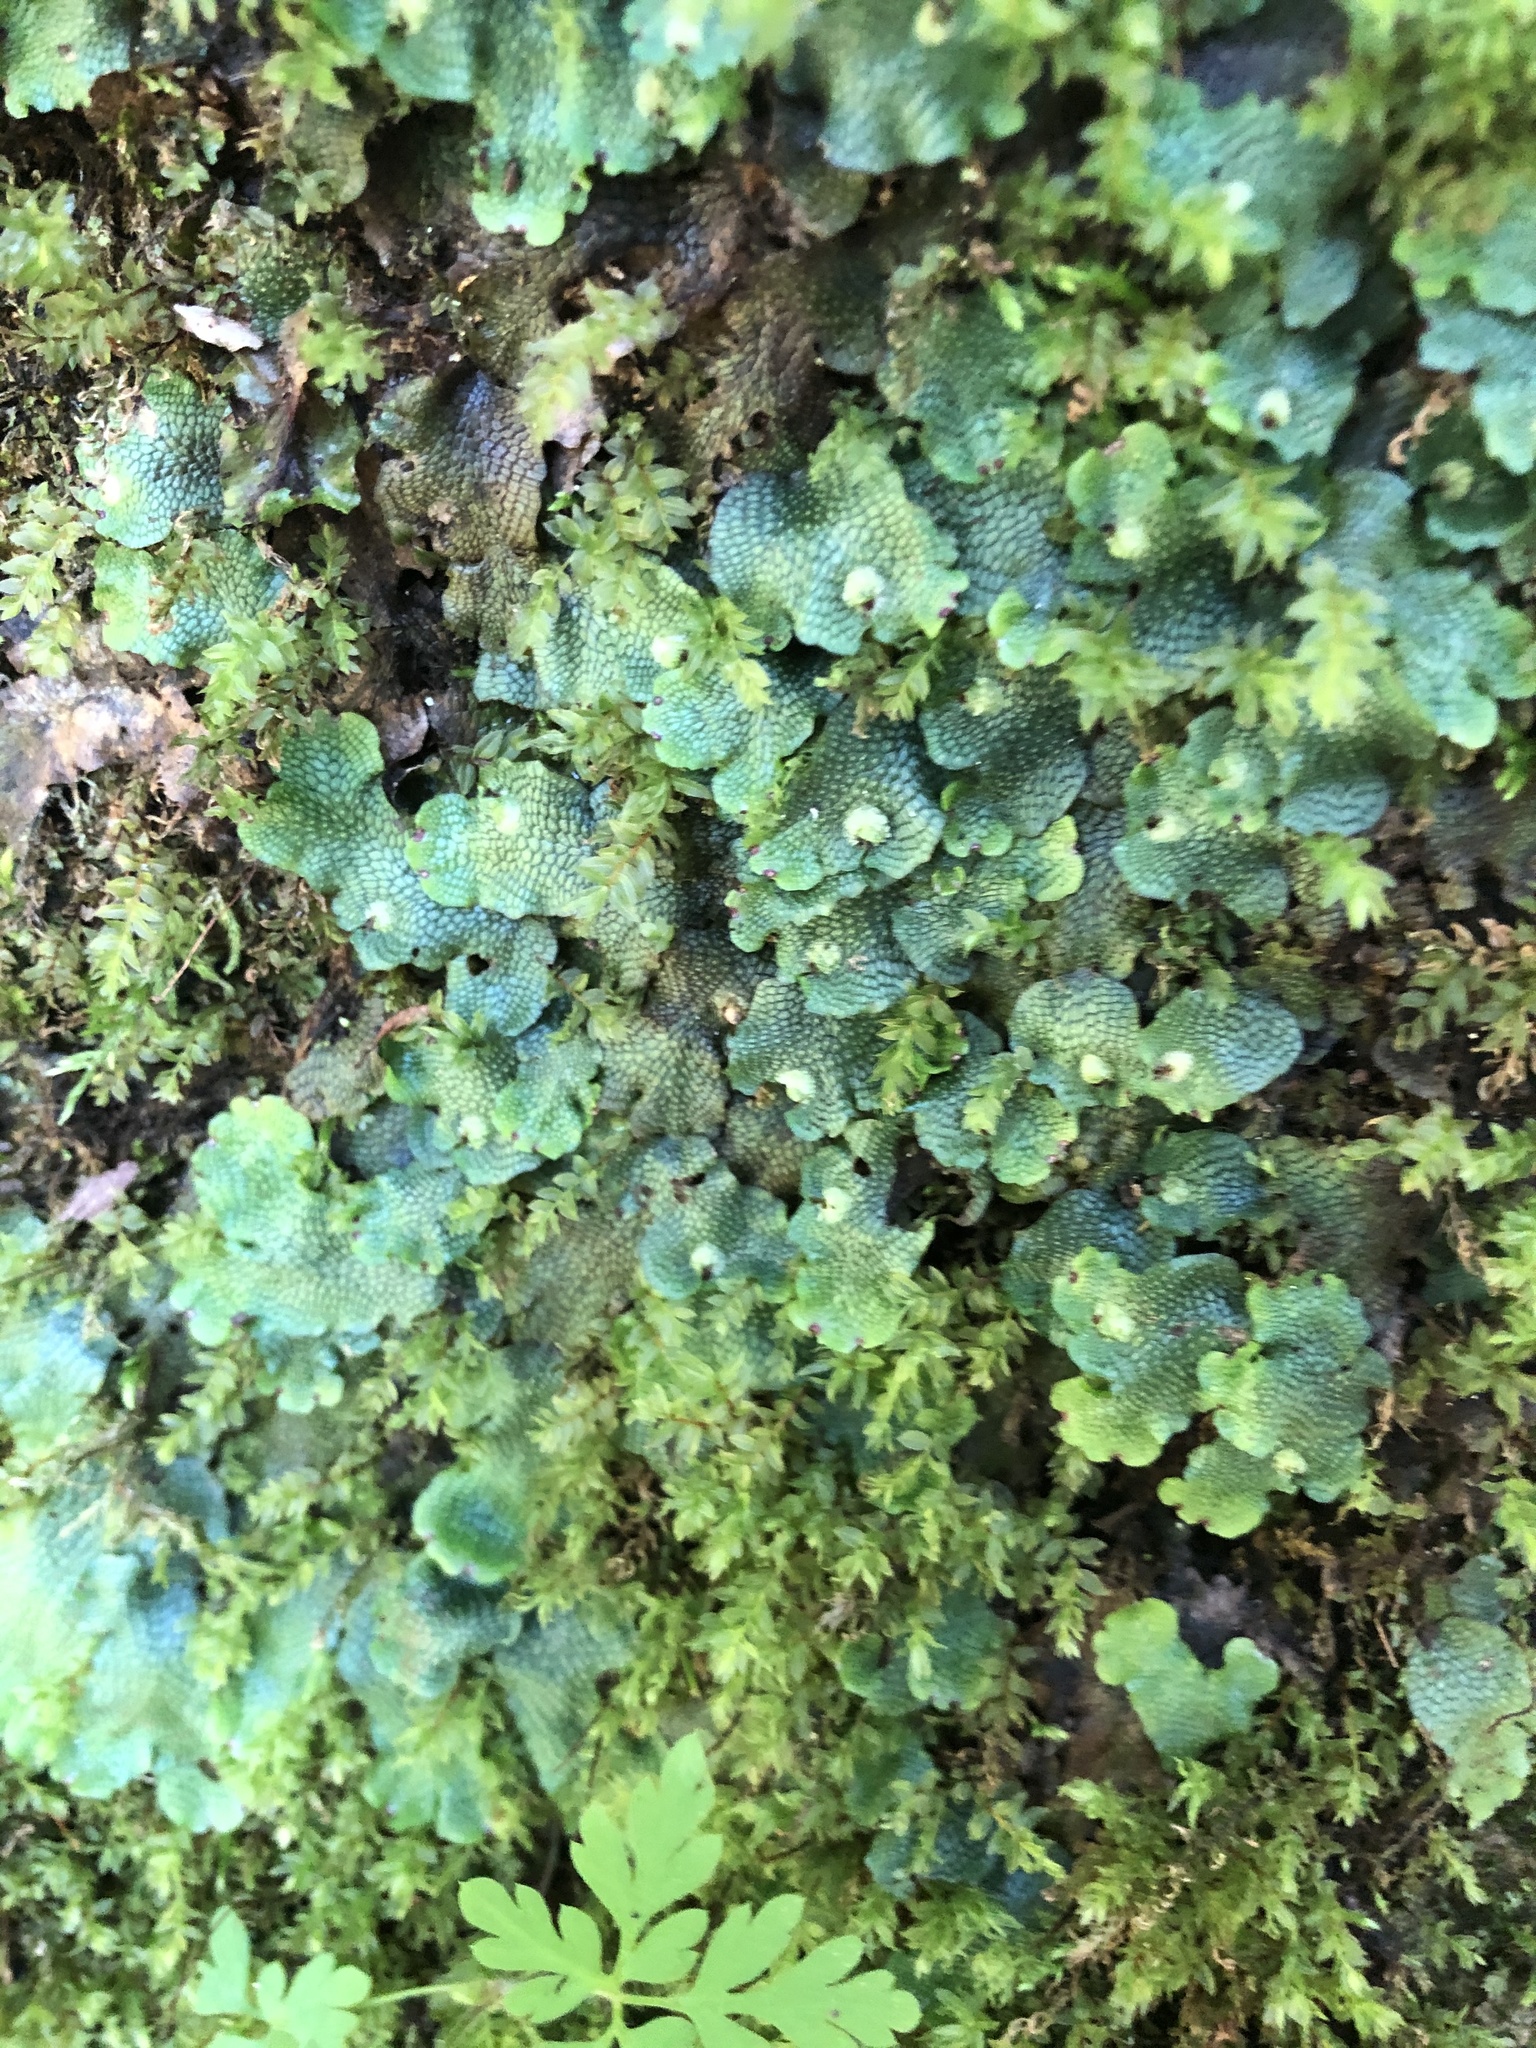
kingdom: Plantae
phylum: Marchantiophyta
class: Marchantiopsida
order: Marchantiales
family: Conocephalaceae
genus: Conocephalum
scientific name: Conocephalum salebrosum
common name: Cat-tongue liverwort
